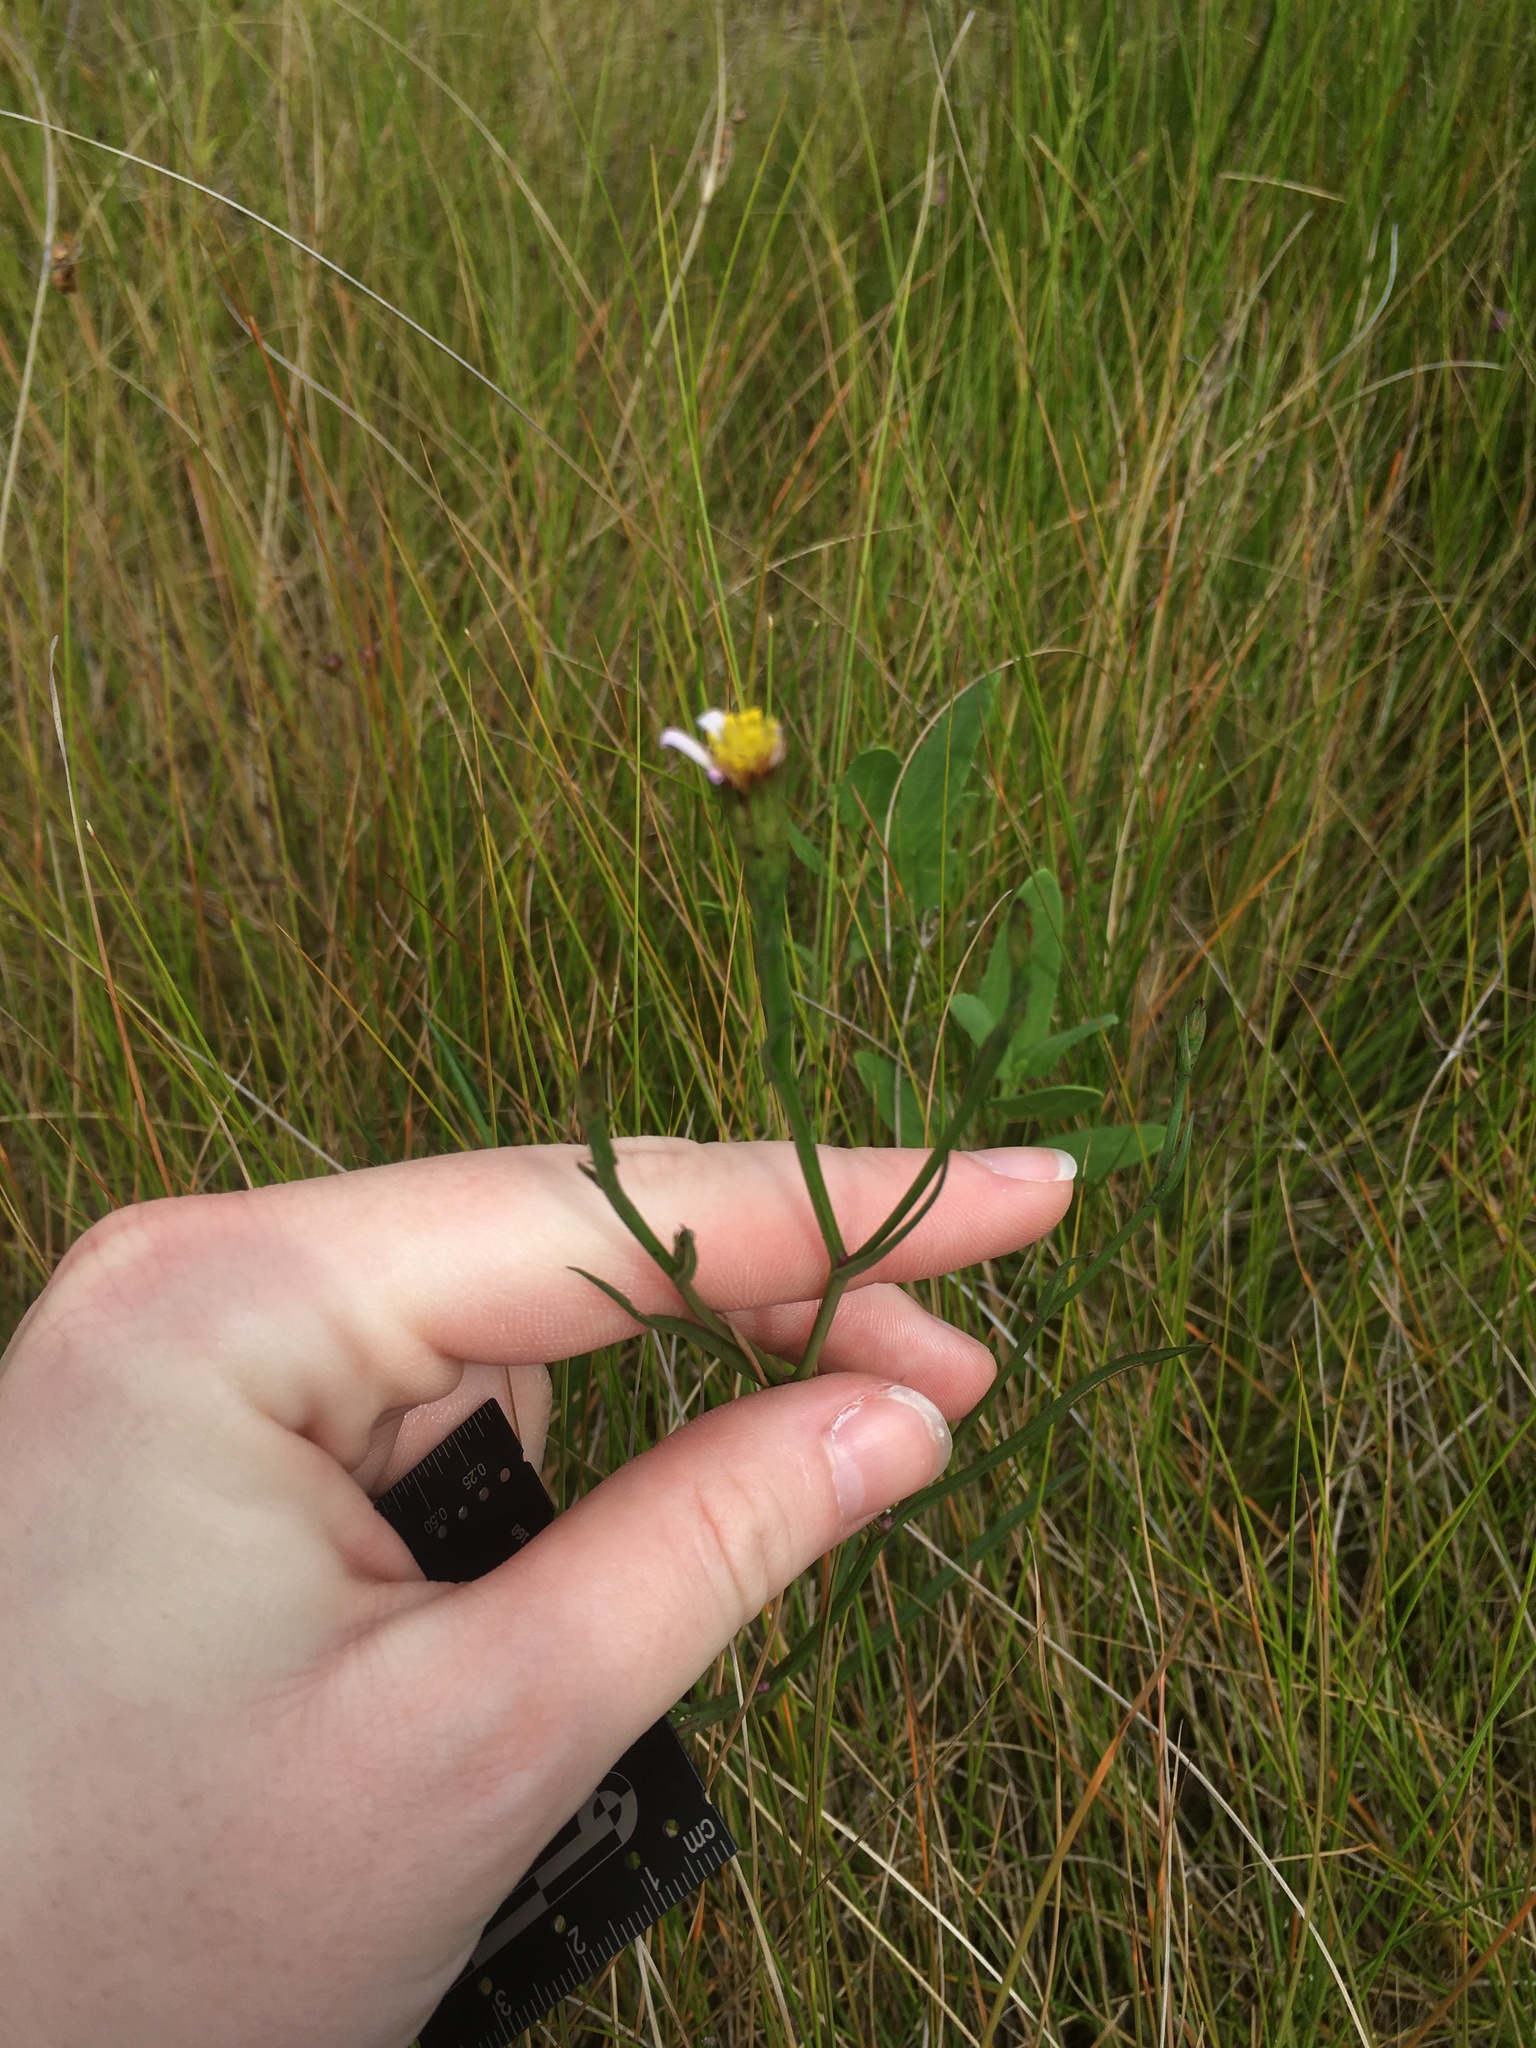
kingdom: Plantae
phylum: Tracheophyta
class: Magnoliopsida
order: Asterales
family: Asteraceae
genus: Symphyotrichum
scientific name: Symphyotrichum tenuifolium
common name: Perennial salt-marsh aster
